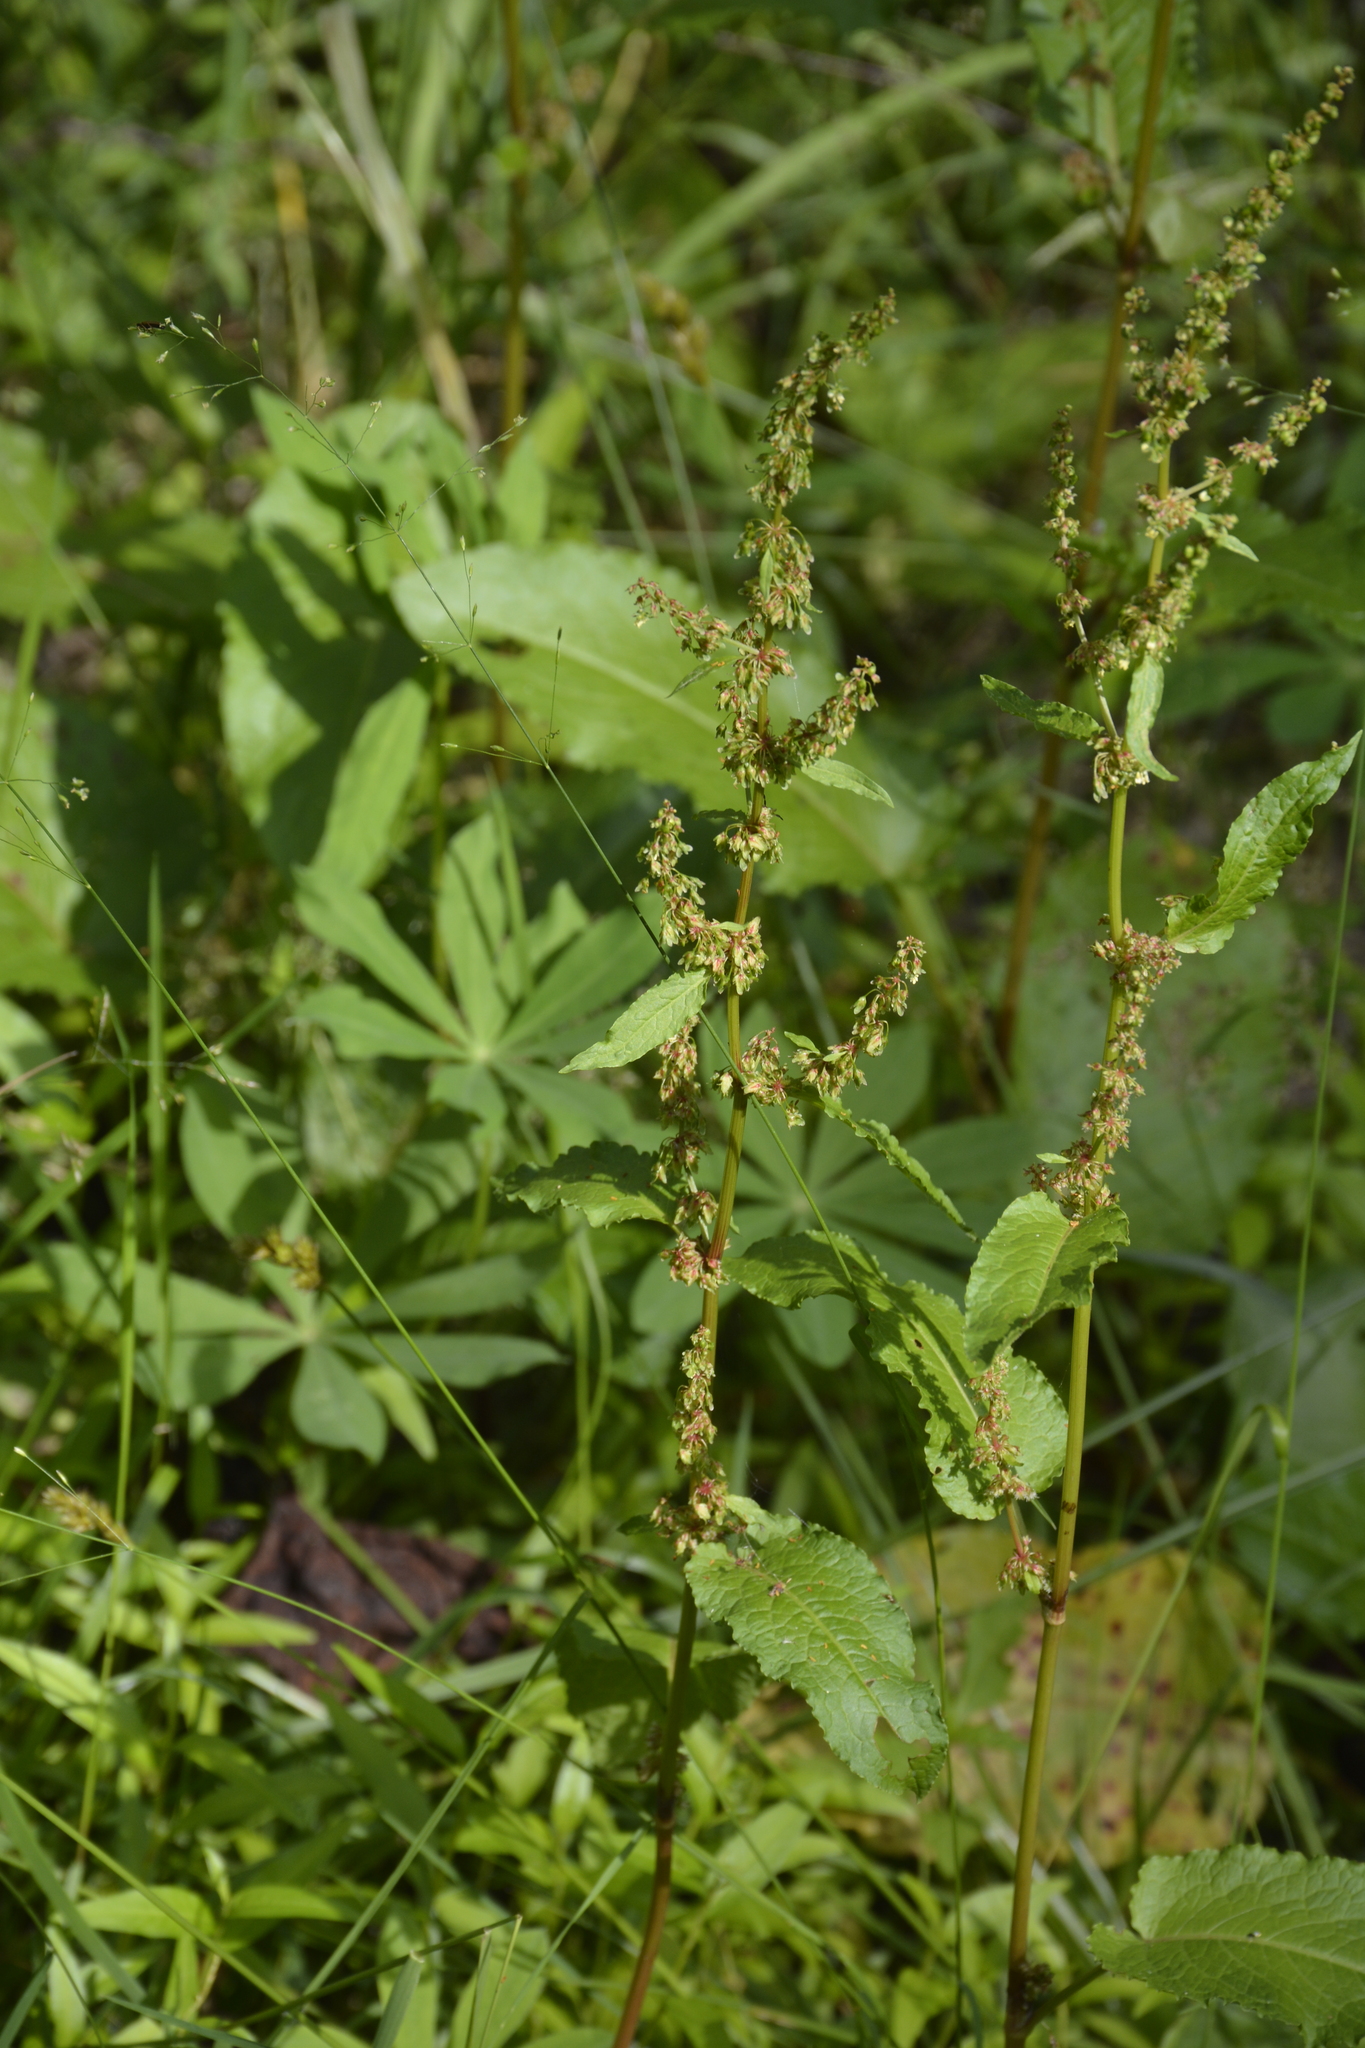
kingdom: Plantae
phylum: Tracheophyta
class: Magnoliopsida
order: Caryophyllales
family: Polygonaceae
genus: Rumex
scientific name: Rumex obtusifolius
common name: Bitter dock
